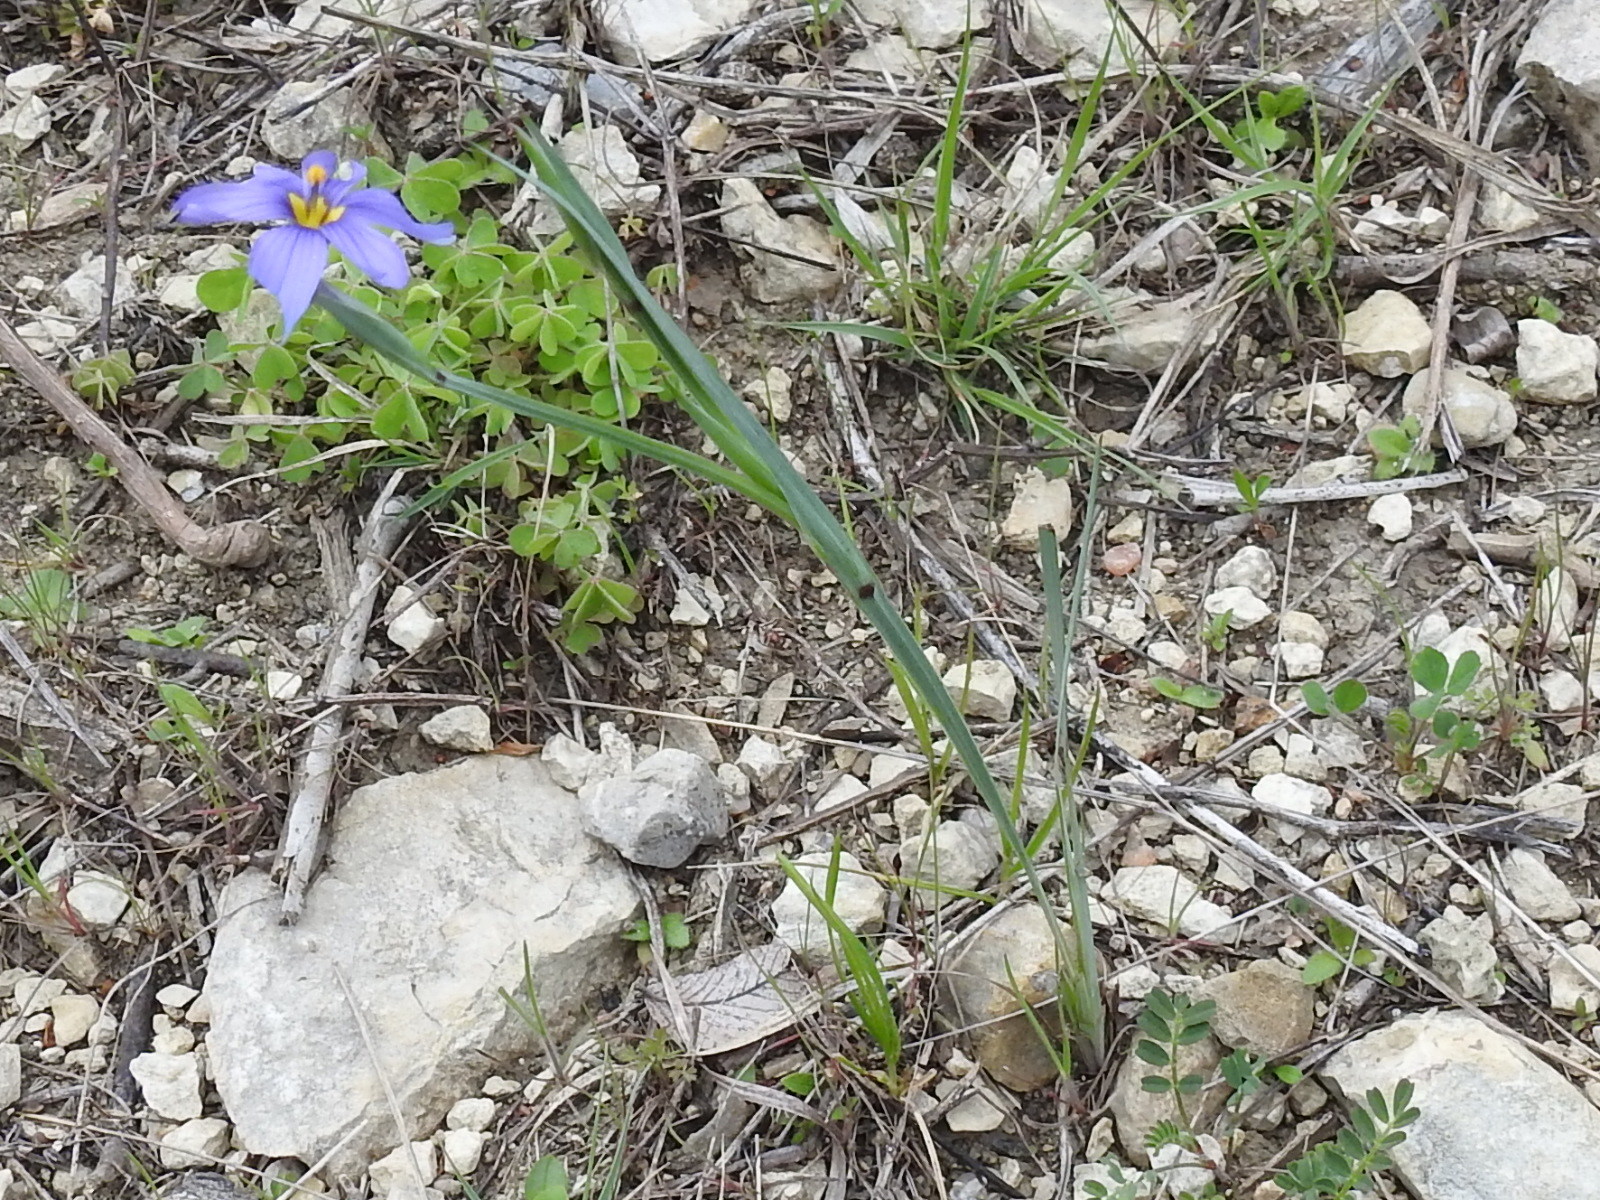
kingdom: Plantae
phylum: Tracheophyta
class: Liliopsida
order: Asparagales
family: Iridaceae
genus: Sisyrinchium
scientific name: Sisyrinchium ensigerum
